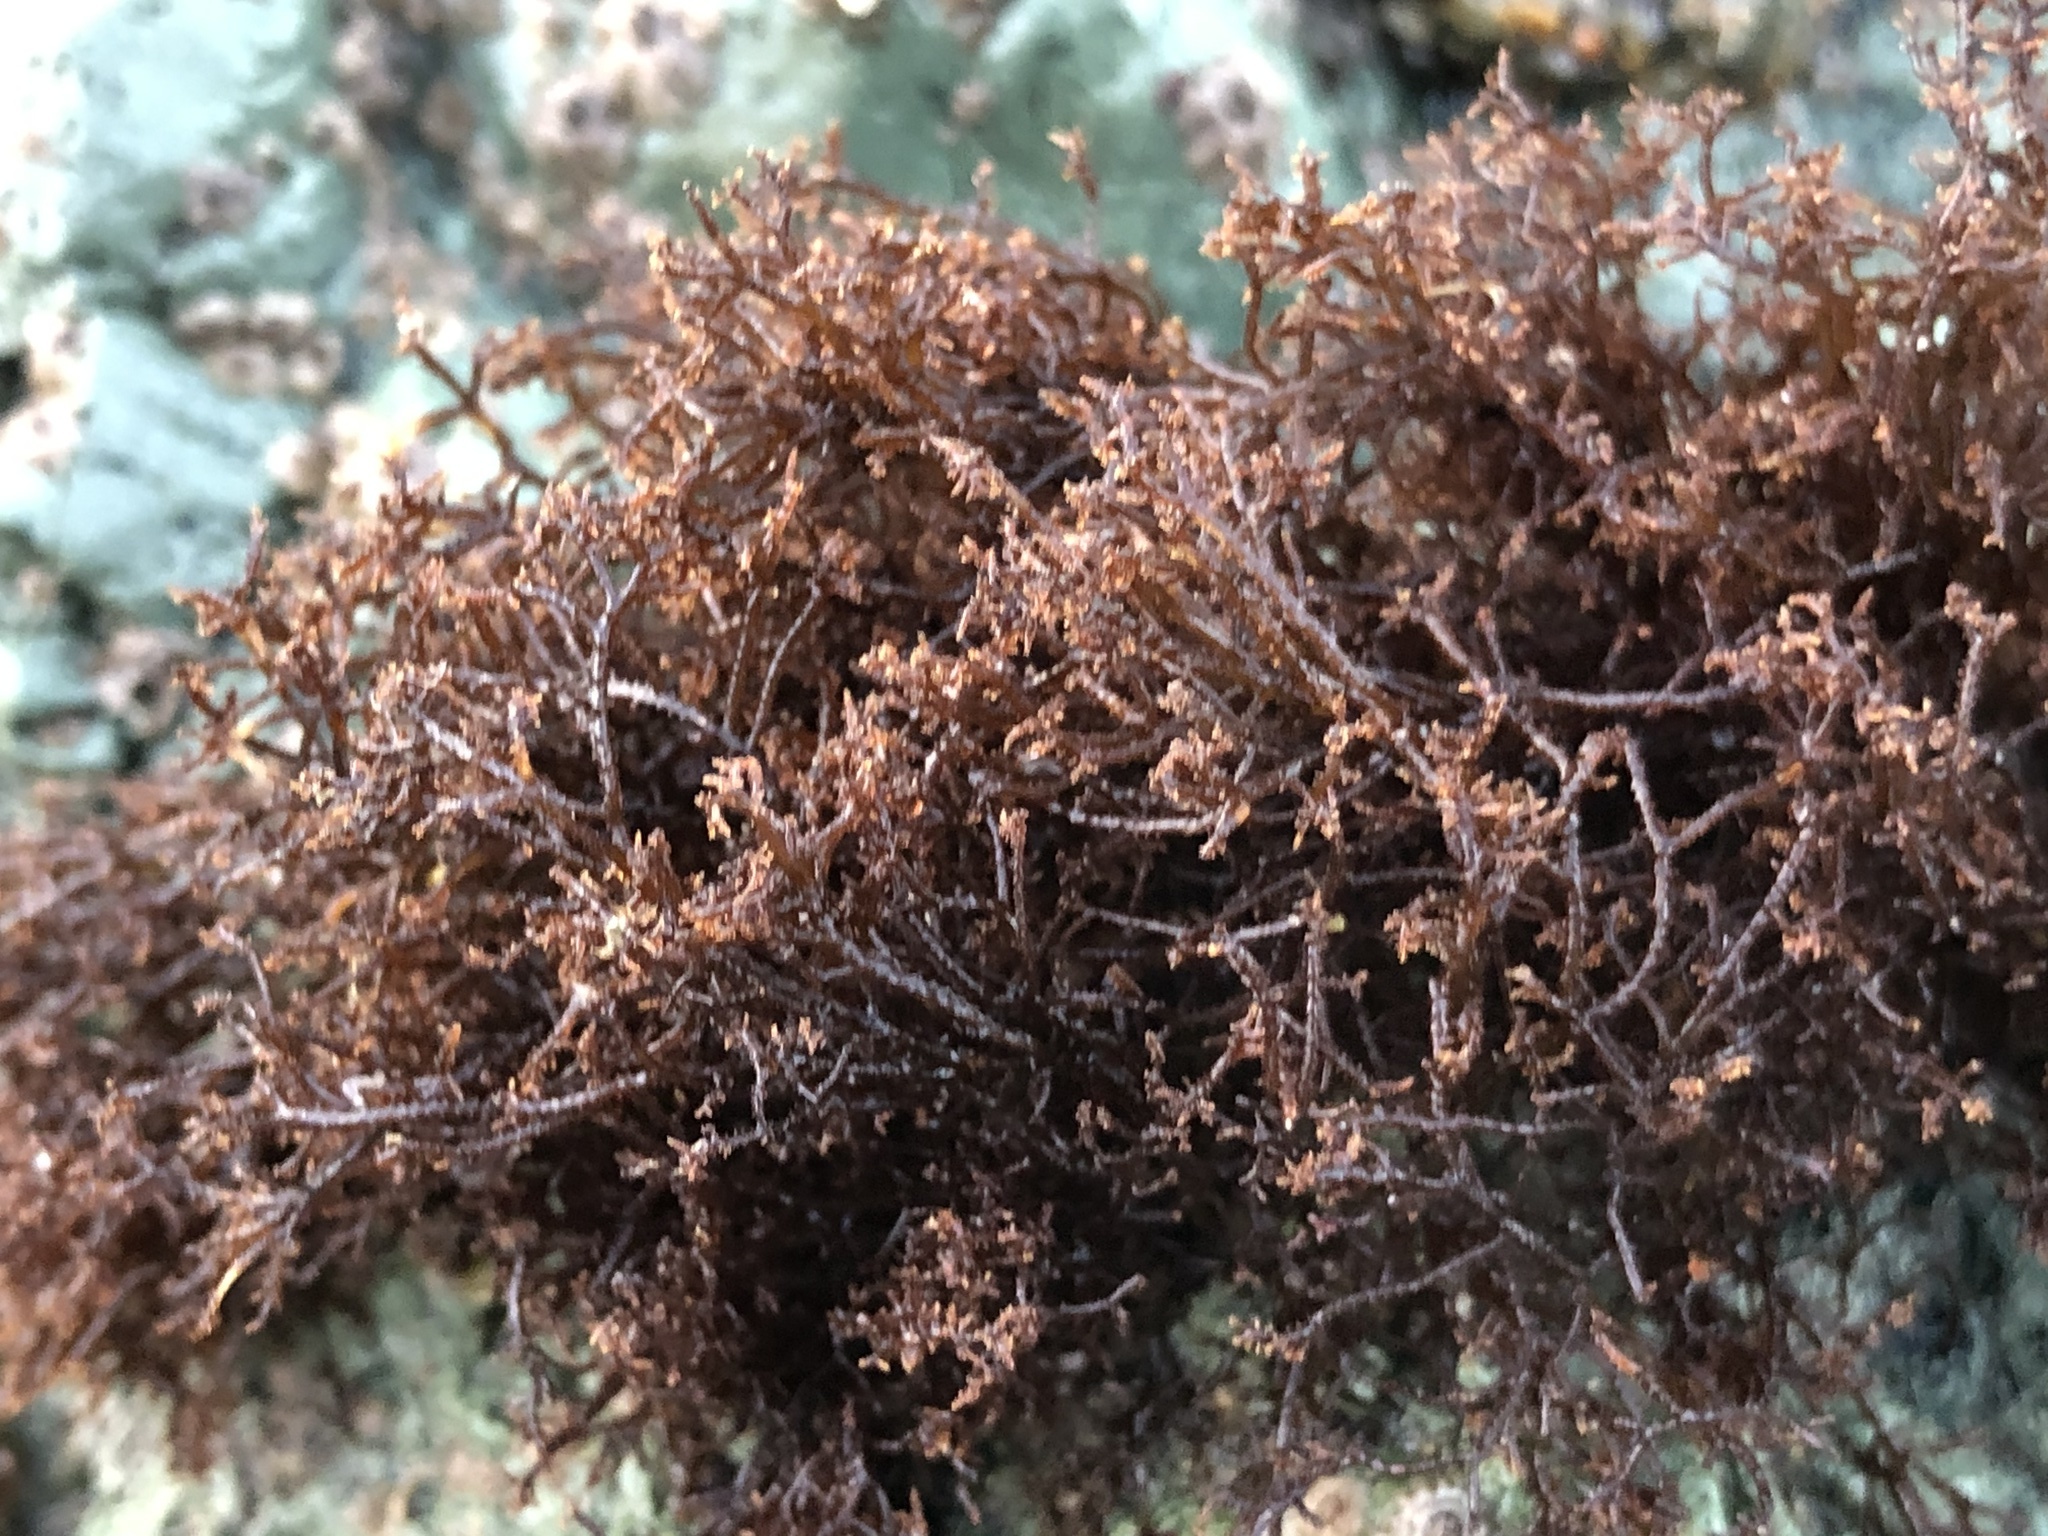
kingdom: Plantae
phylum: Rhodophyta
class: Florideophyceae
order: Gigartinales
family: Endocladiaceae
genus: Endocladia
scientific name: Endocladia muricata
